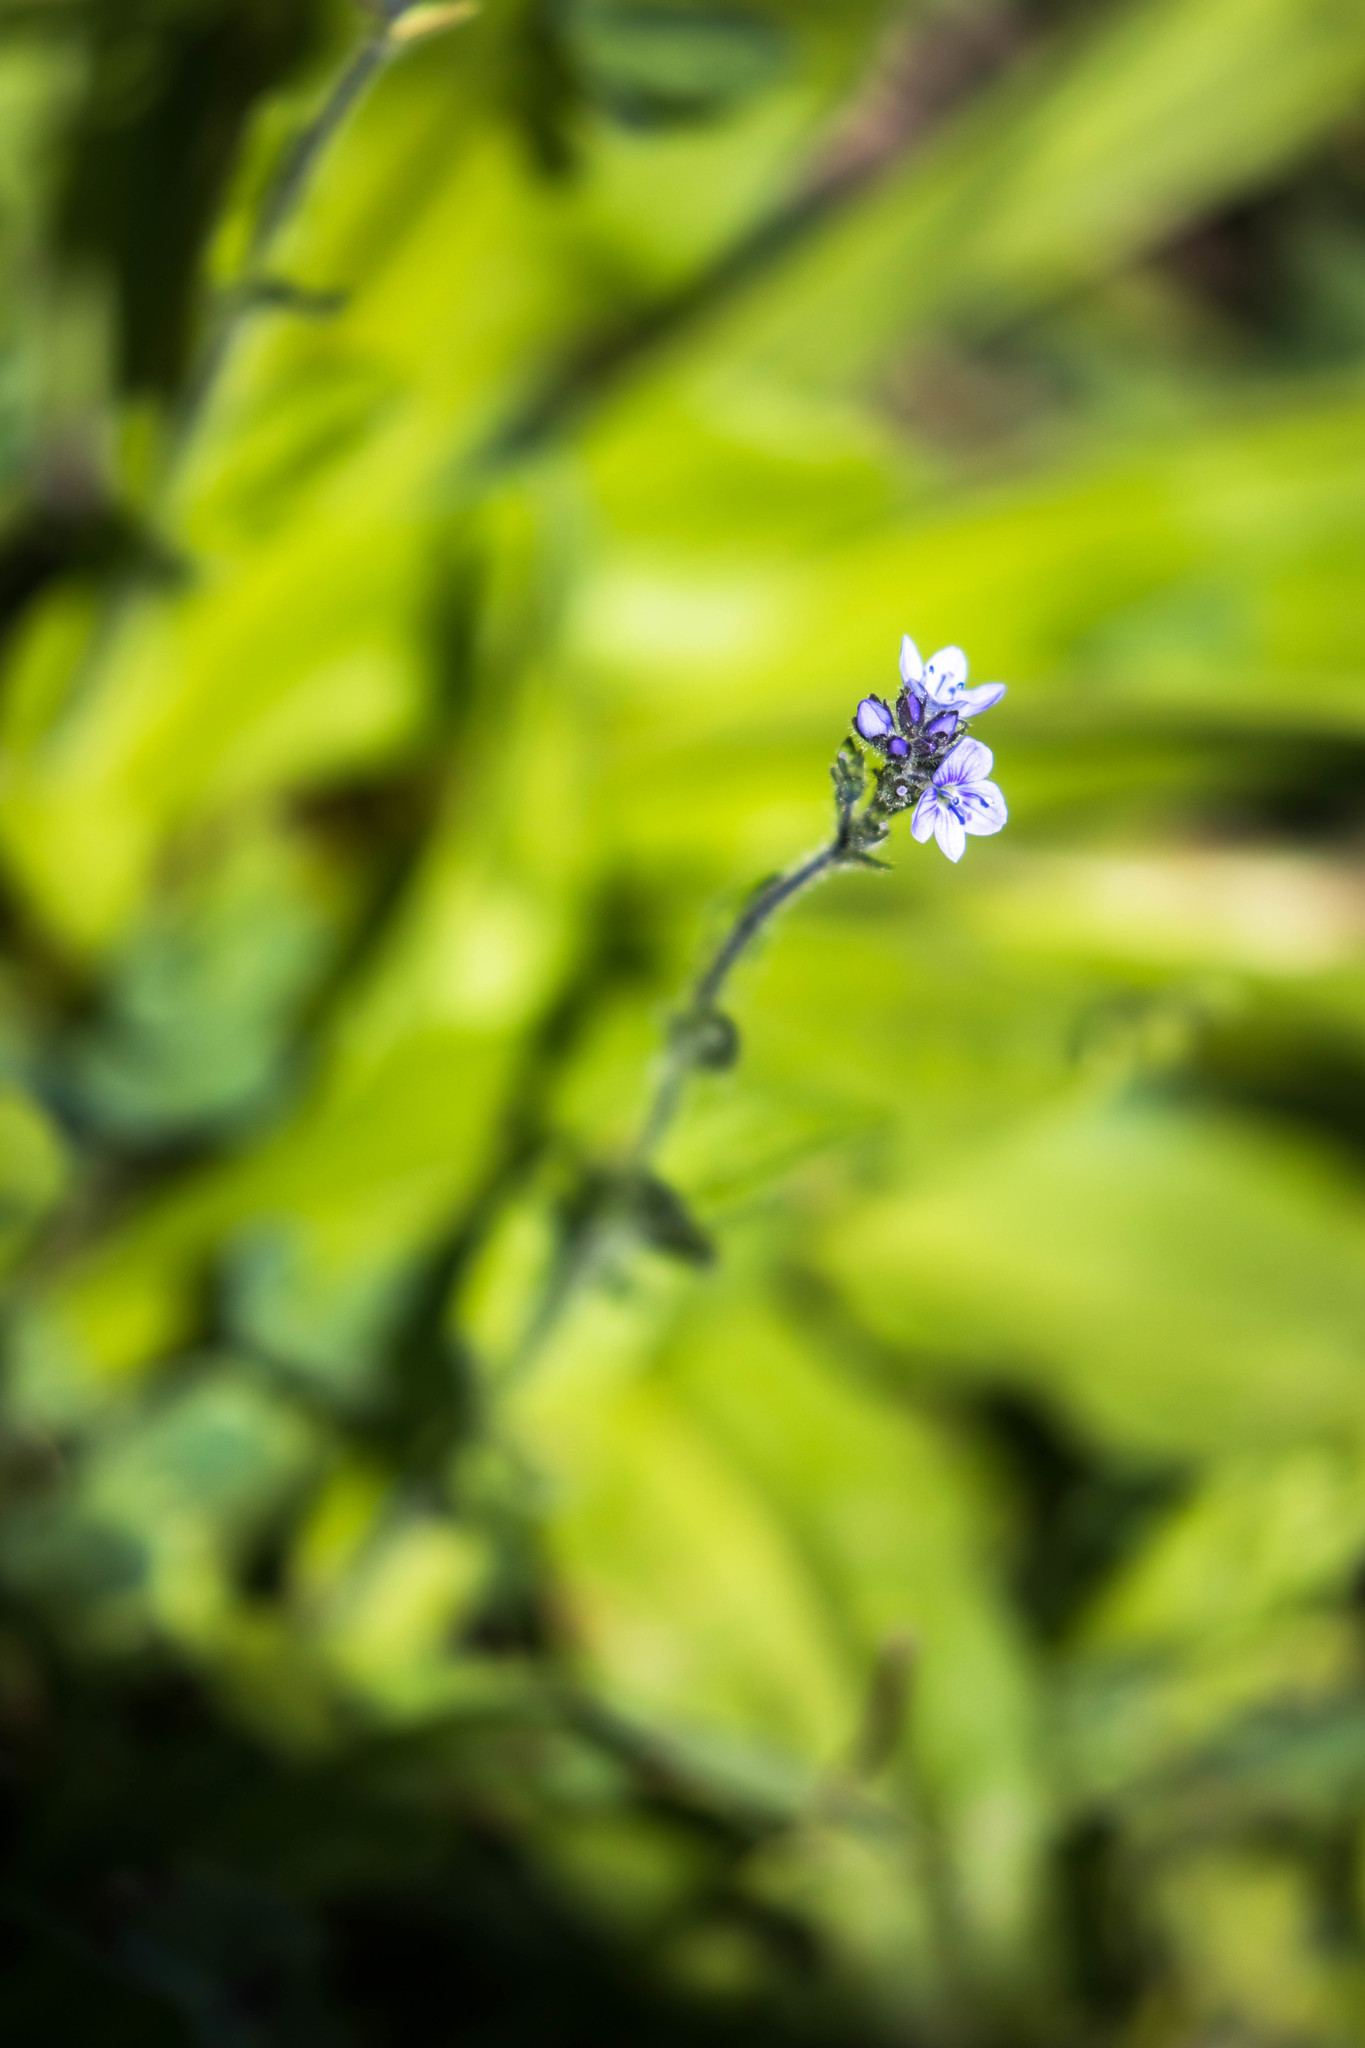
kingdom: Plantae
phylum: Tracheophyta
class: Magnoliopsida
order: Lamiales
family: Plantaginaceae
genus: Veronica
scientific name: Veronica wormskjoldii
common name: American alpine speedwell
